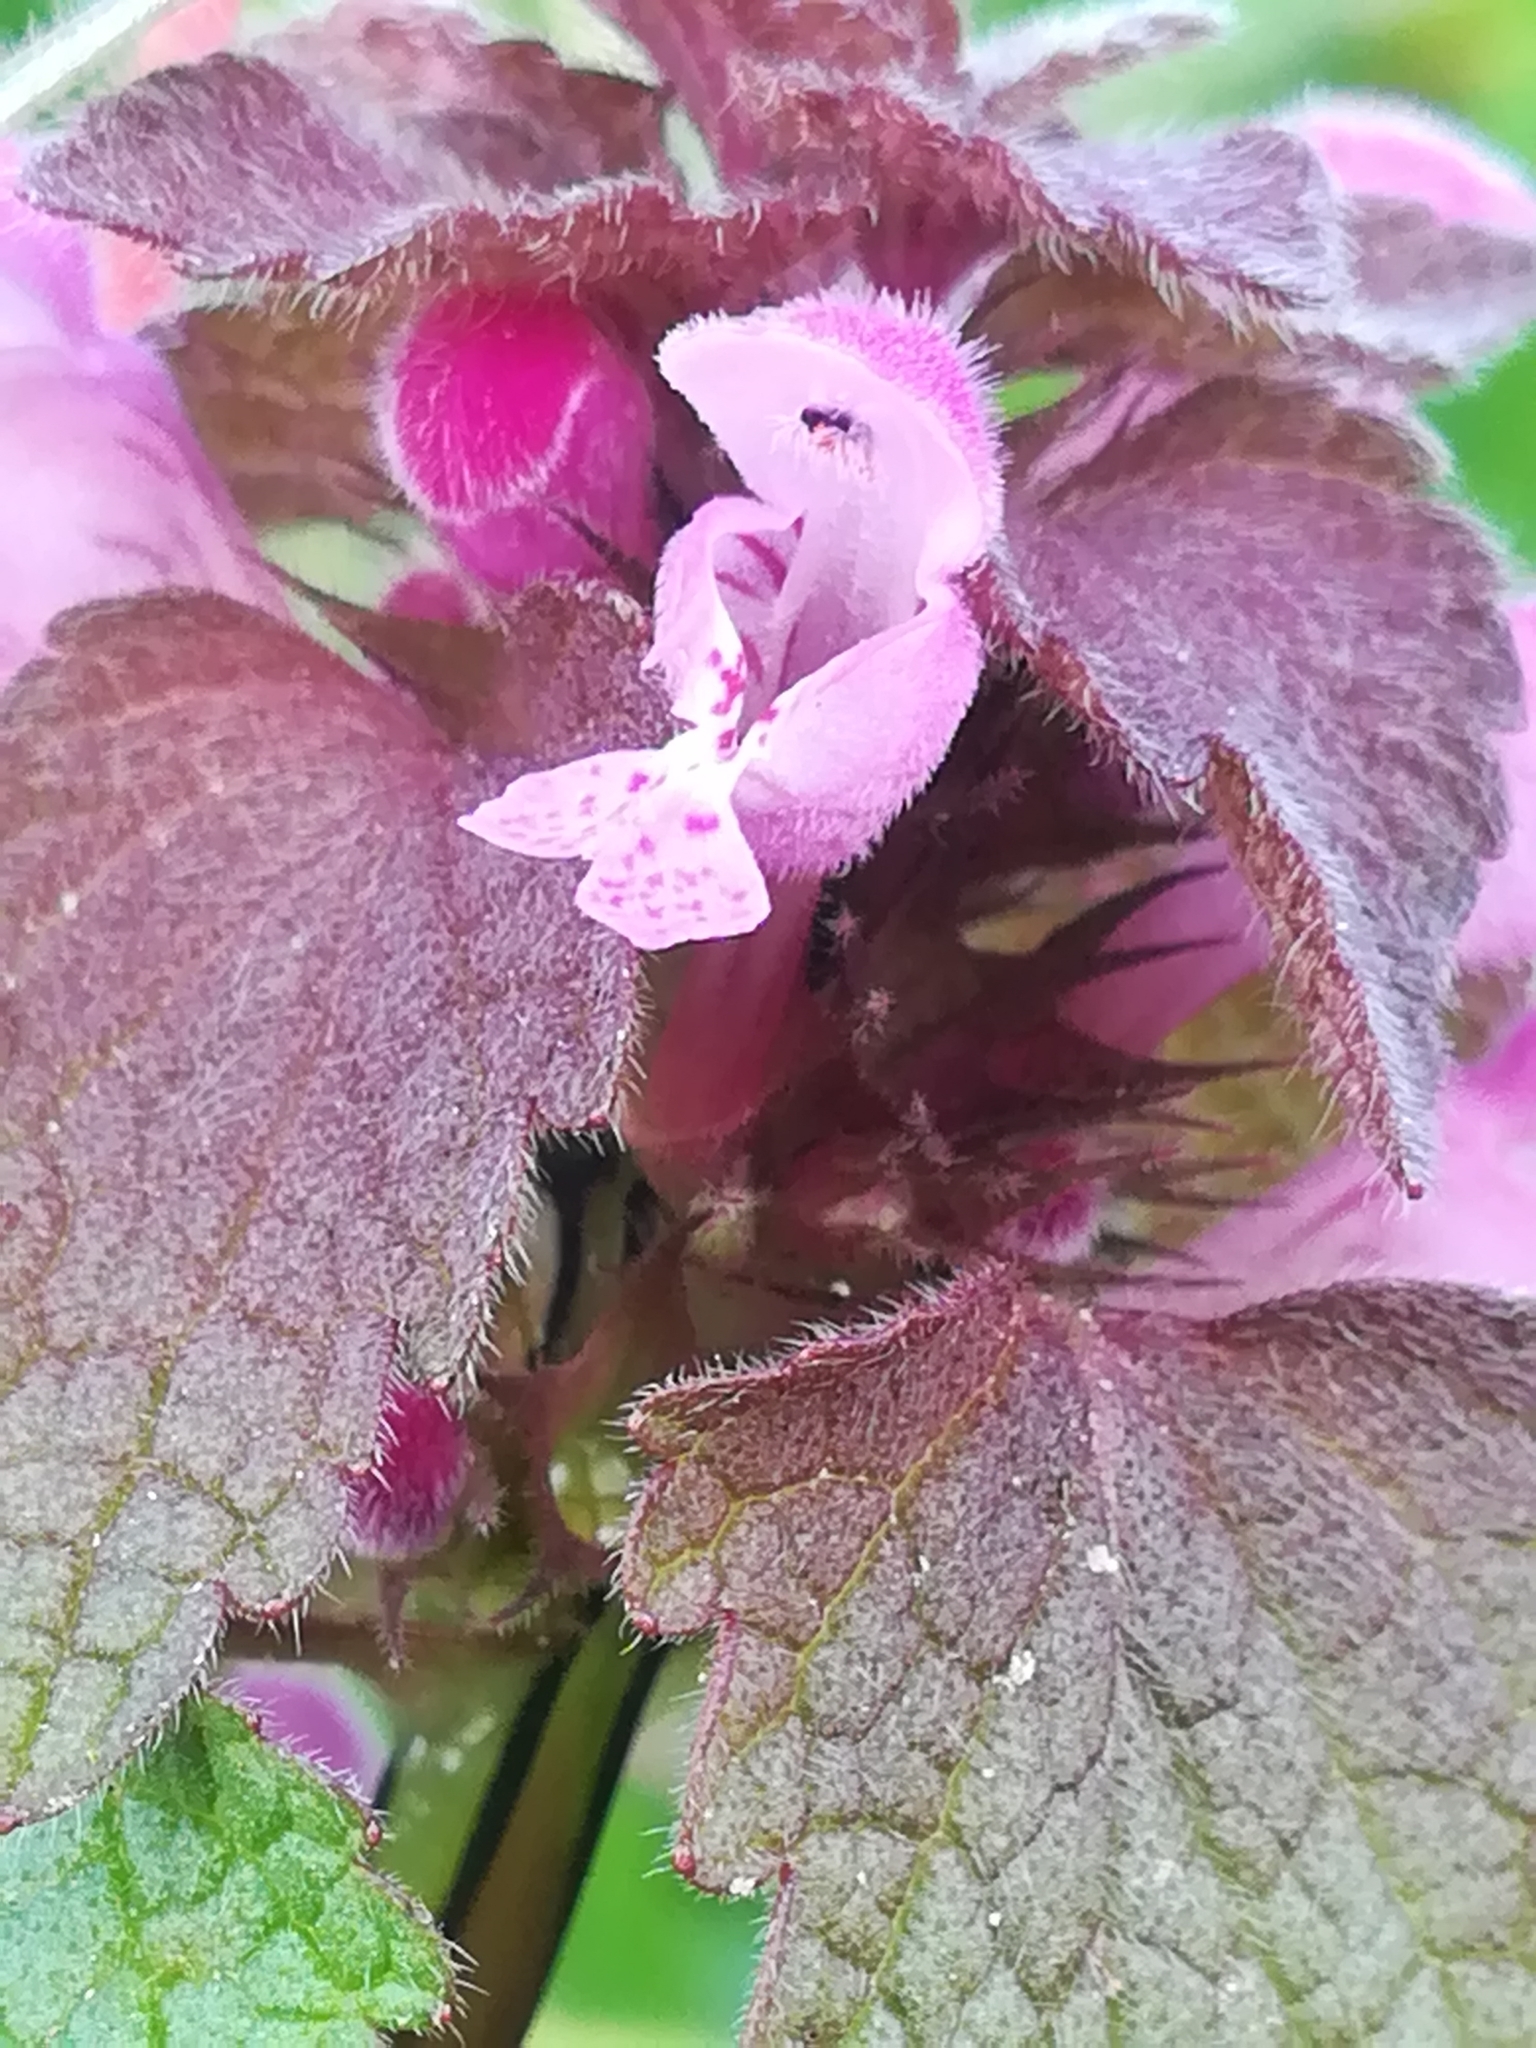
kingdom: Plantae
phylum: Tracheophyta
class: Magnoliopsida
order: Lamiales
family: Lamiaceae
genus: Lamium
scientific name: Lamium purpureum
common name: Red dead-nettle
